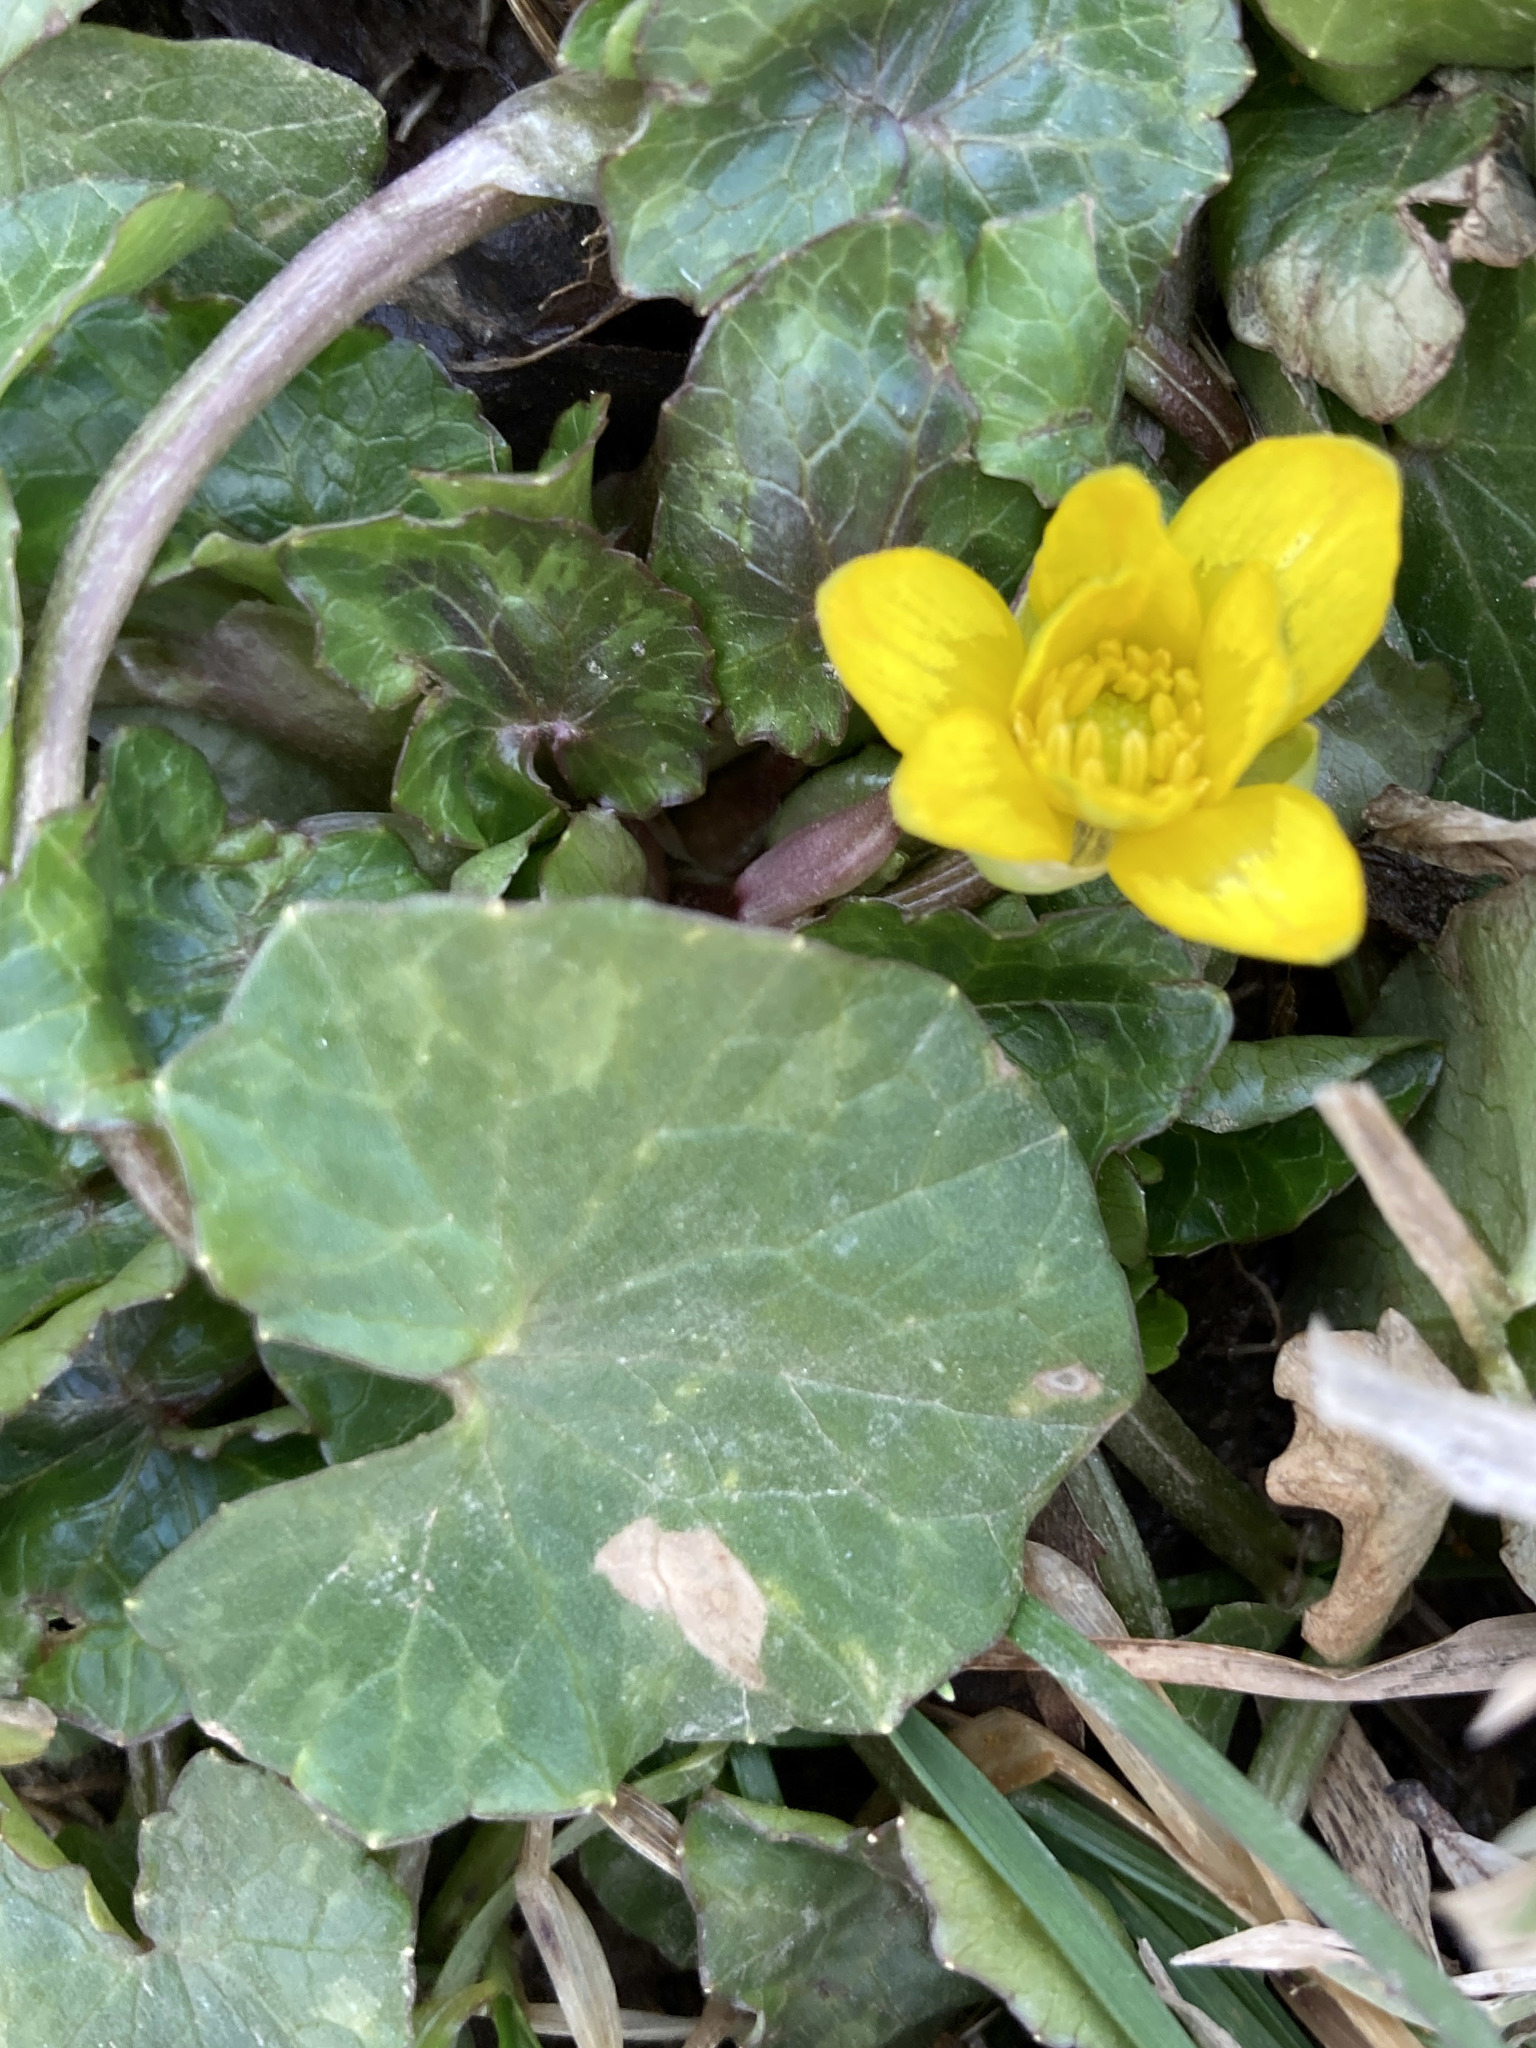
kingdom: Plantae
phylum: Tracheophyta
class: Magnoliopsida
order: Ranunculales
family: Ranunculaceae
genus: Ficaria
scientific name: Ficaria verna
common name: Lesser celandine
